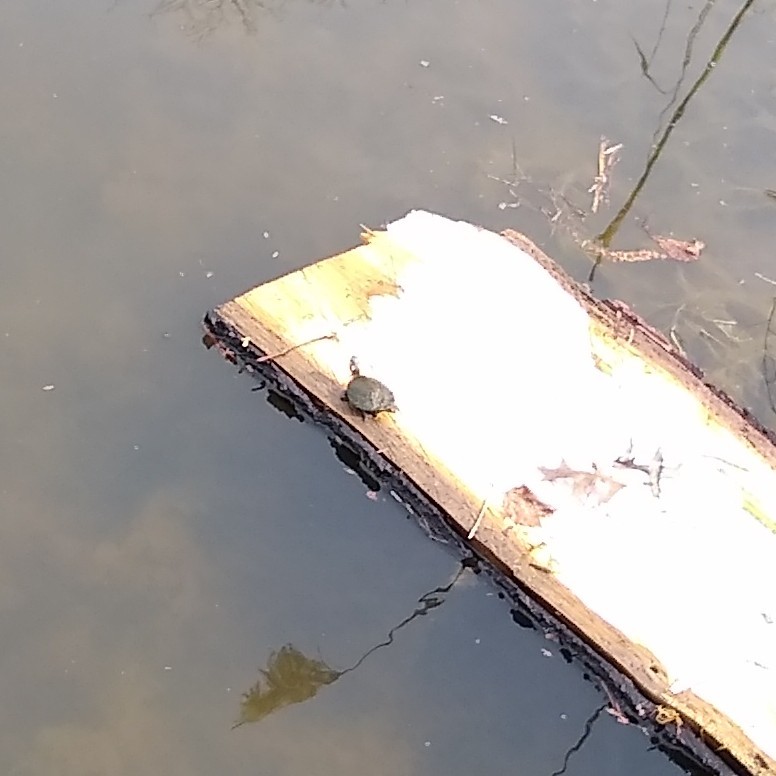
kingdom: Animalia
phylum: Chordata
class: Testudines
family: Emydidae
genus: Chrysemys
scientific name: Chrysemys picta
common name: Painted turtle
